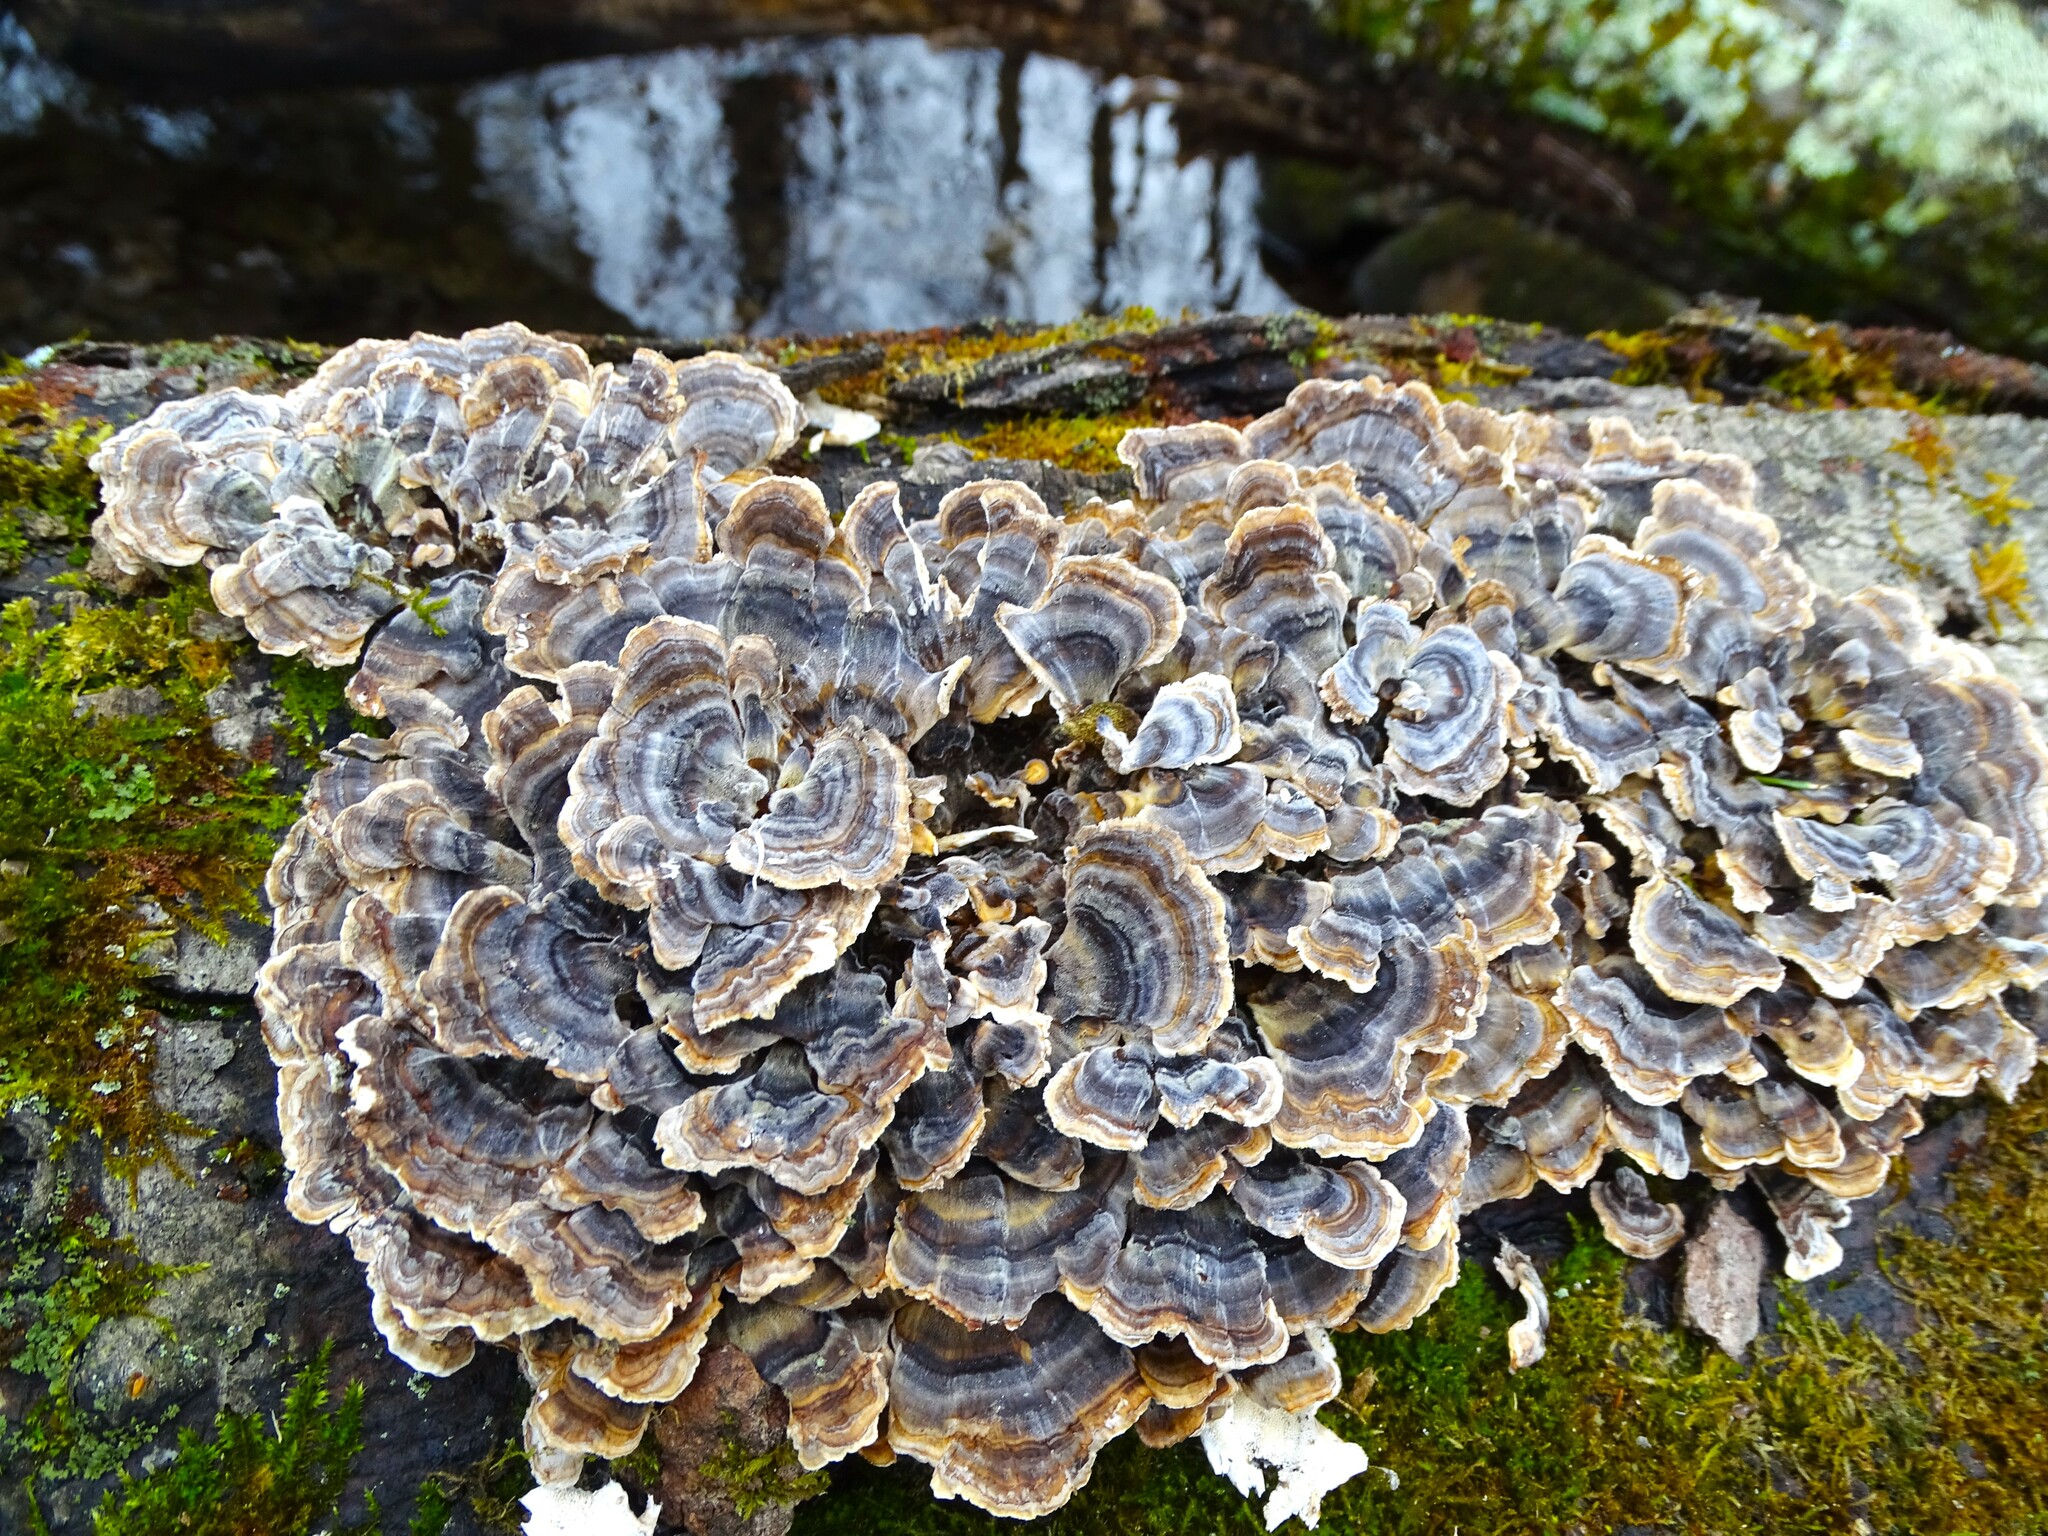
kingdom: Fungi
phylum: Basidiomycota
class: Agaricomycetes
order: Polyporales
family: Polyporaceae
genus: Trametes
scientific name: Trametes versicolor
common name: Turkeytail
